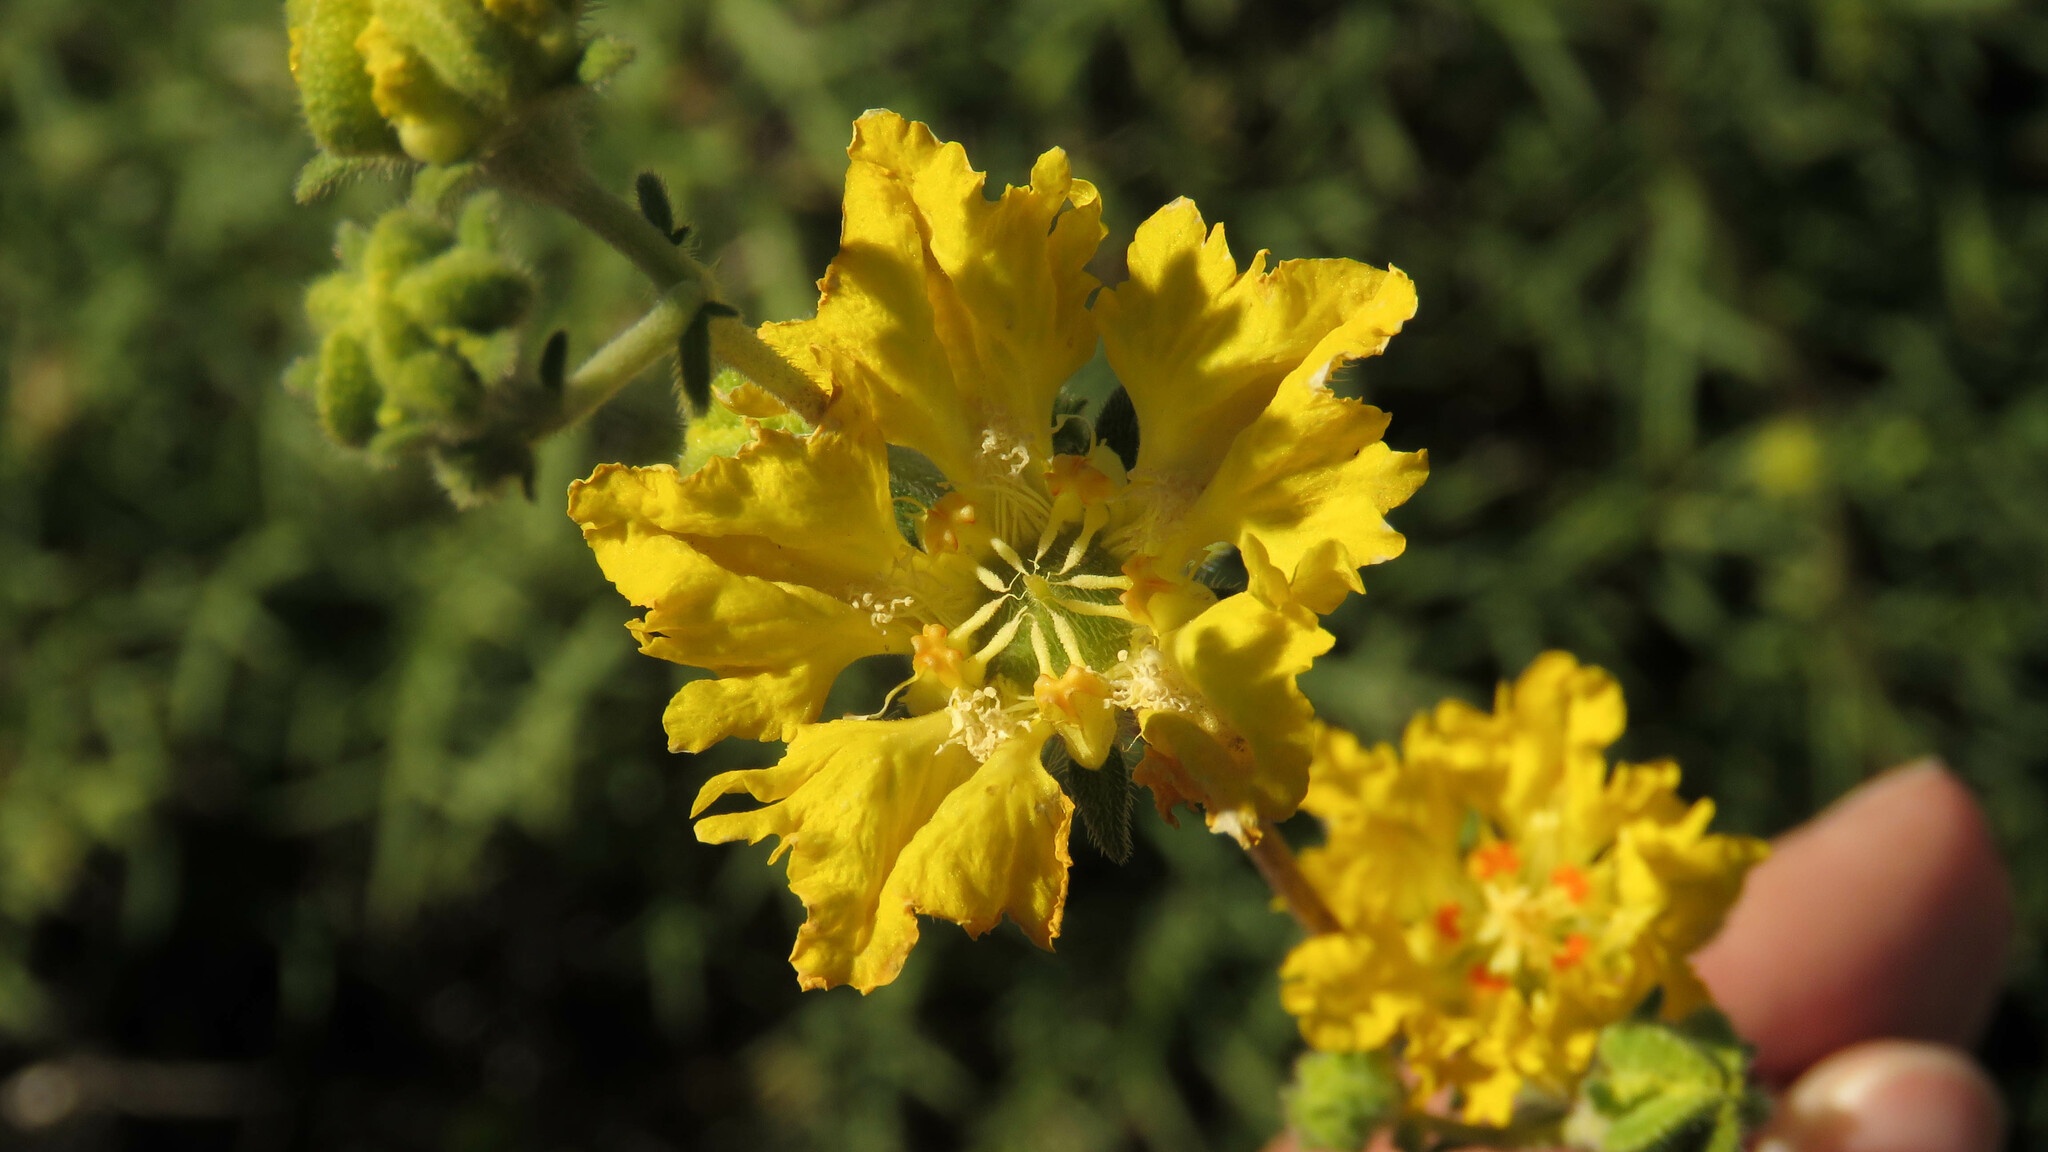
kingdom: Plantae
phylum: Tracheophyta
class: Magnoliopsida
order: Cornales
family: Loasaceae
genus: Pinnasa
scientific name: Pinnasa bergii
